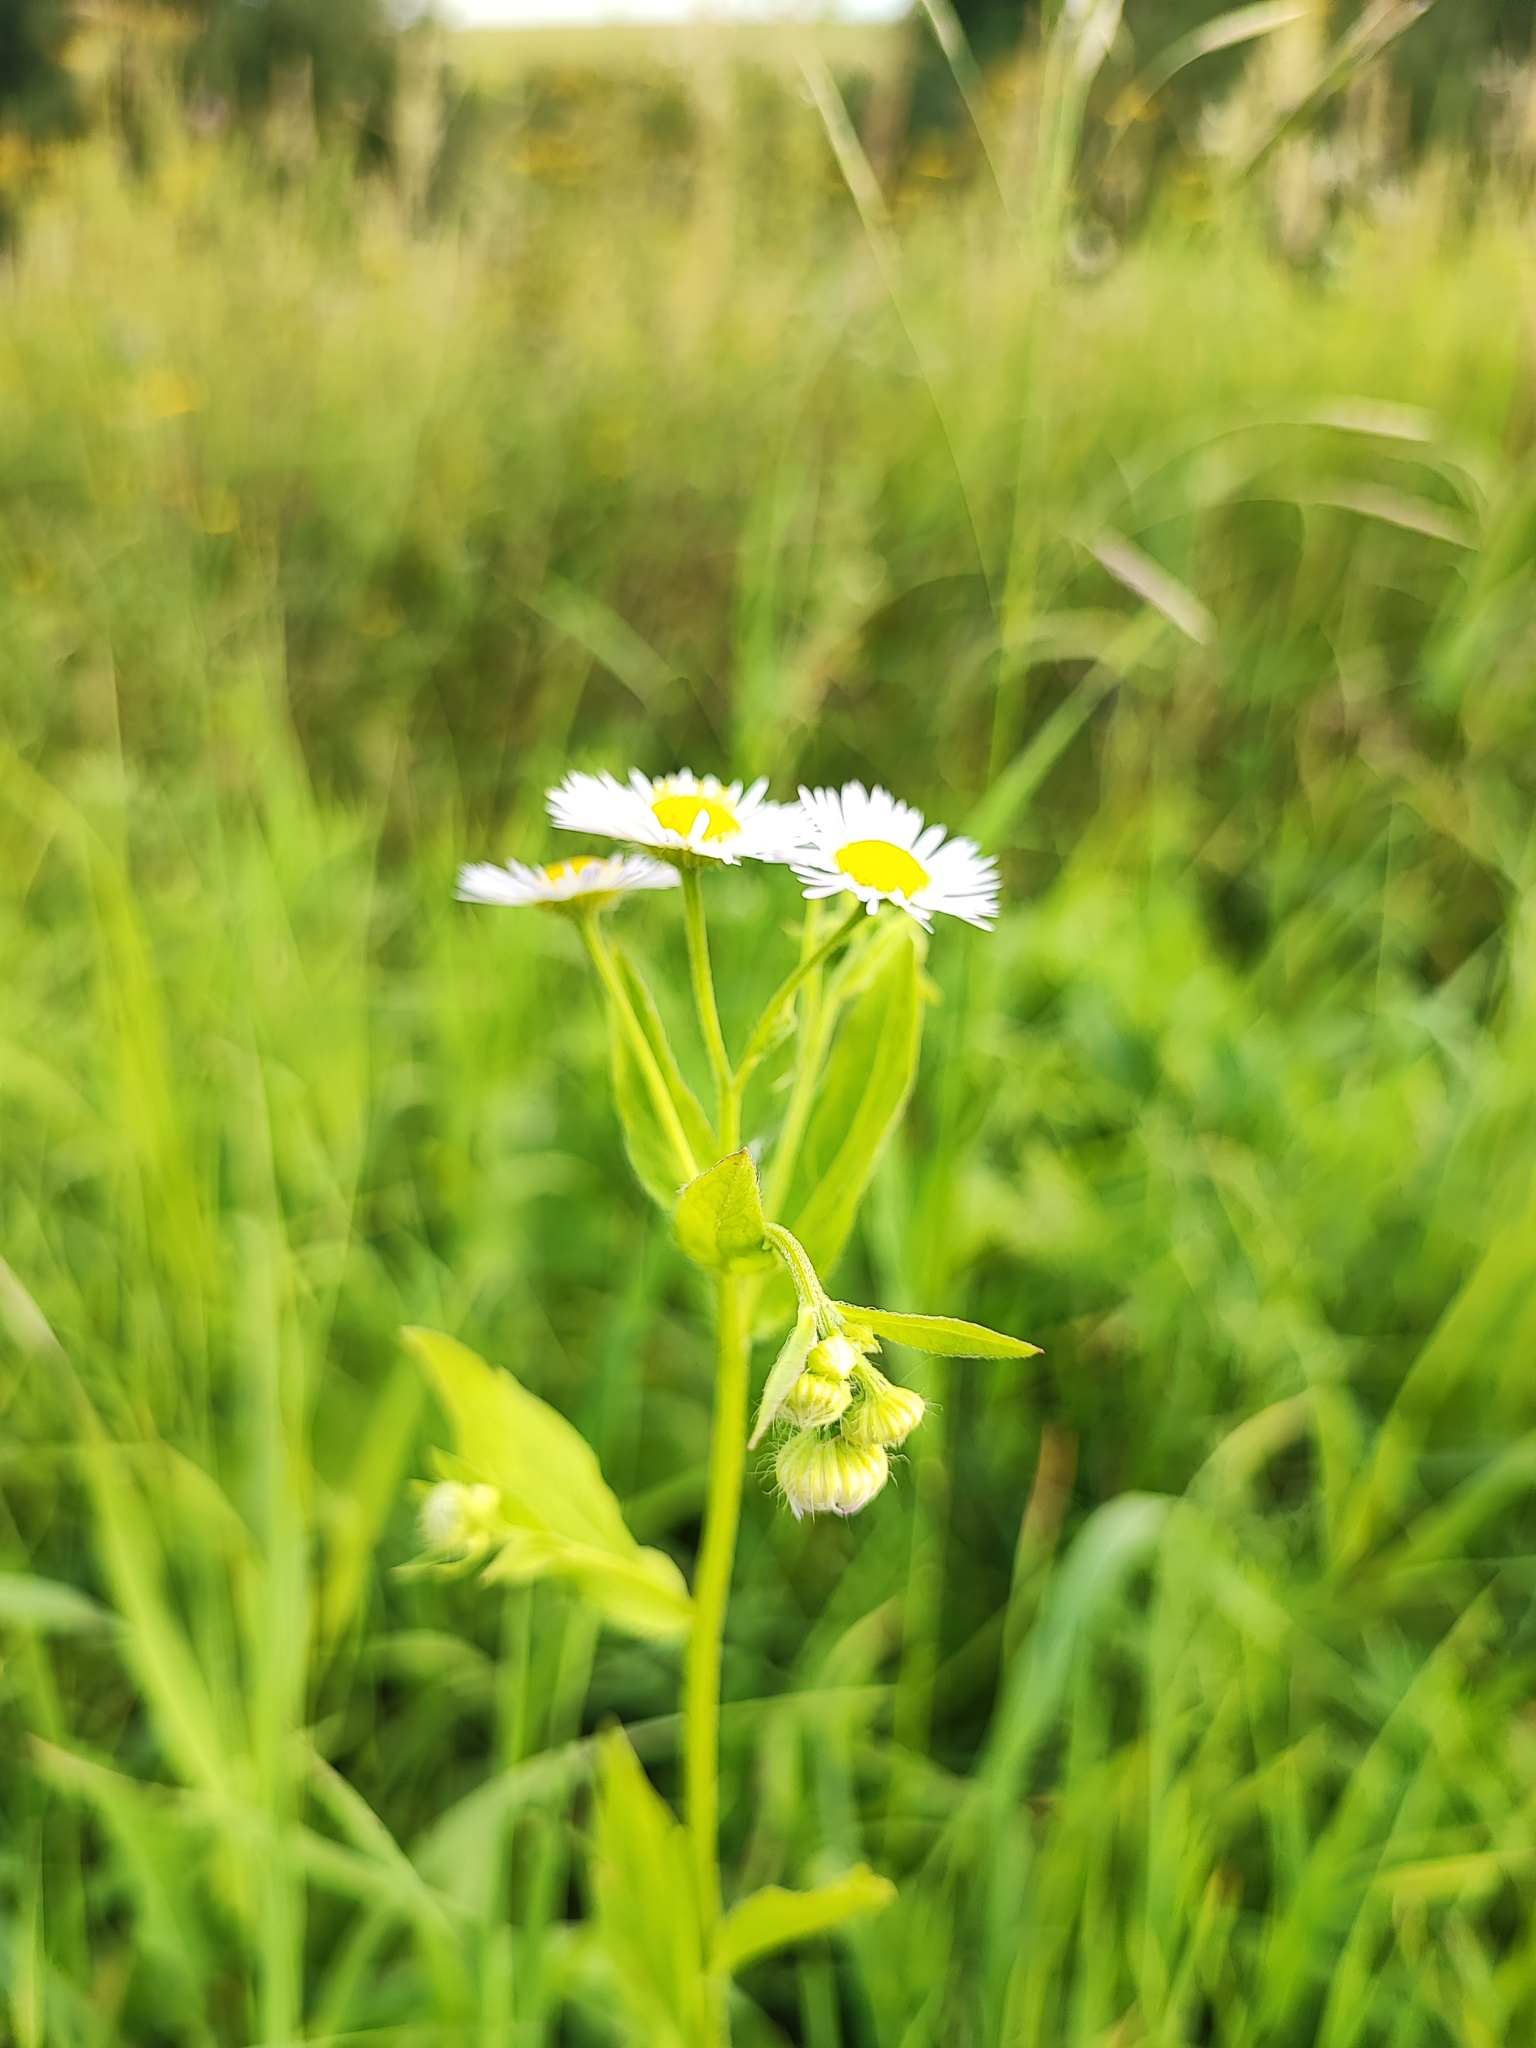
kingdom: Plantae
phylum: Tracheophyta
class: Magnoliopsida
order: Asterales
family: Asteraceae
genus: Erigeron
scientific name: Erigeron annuus
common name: Tall fleabane
